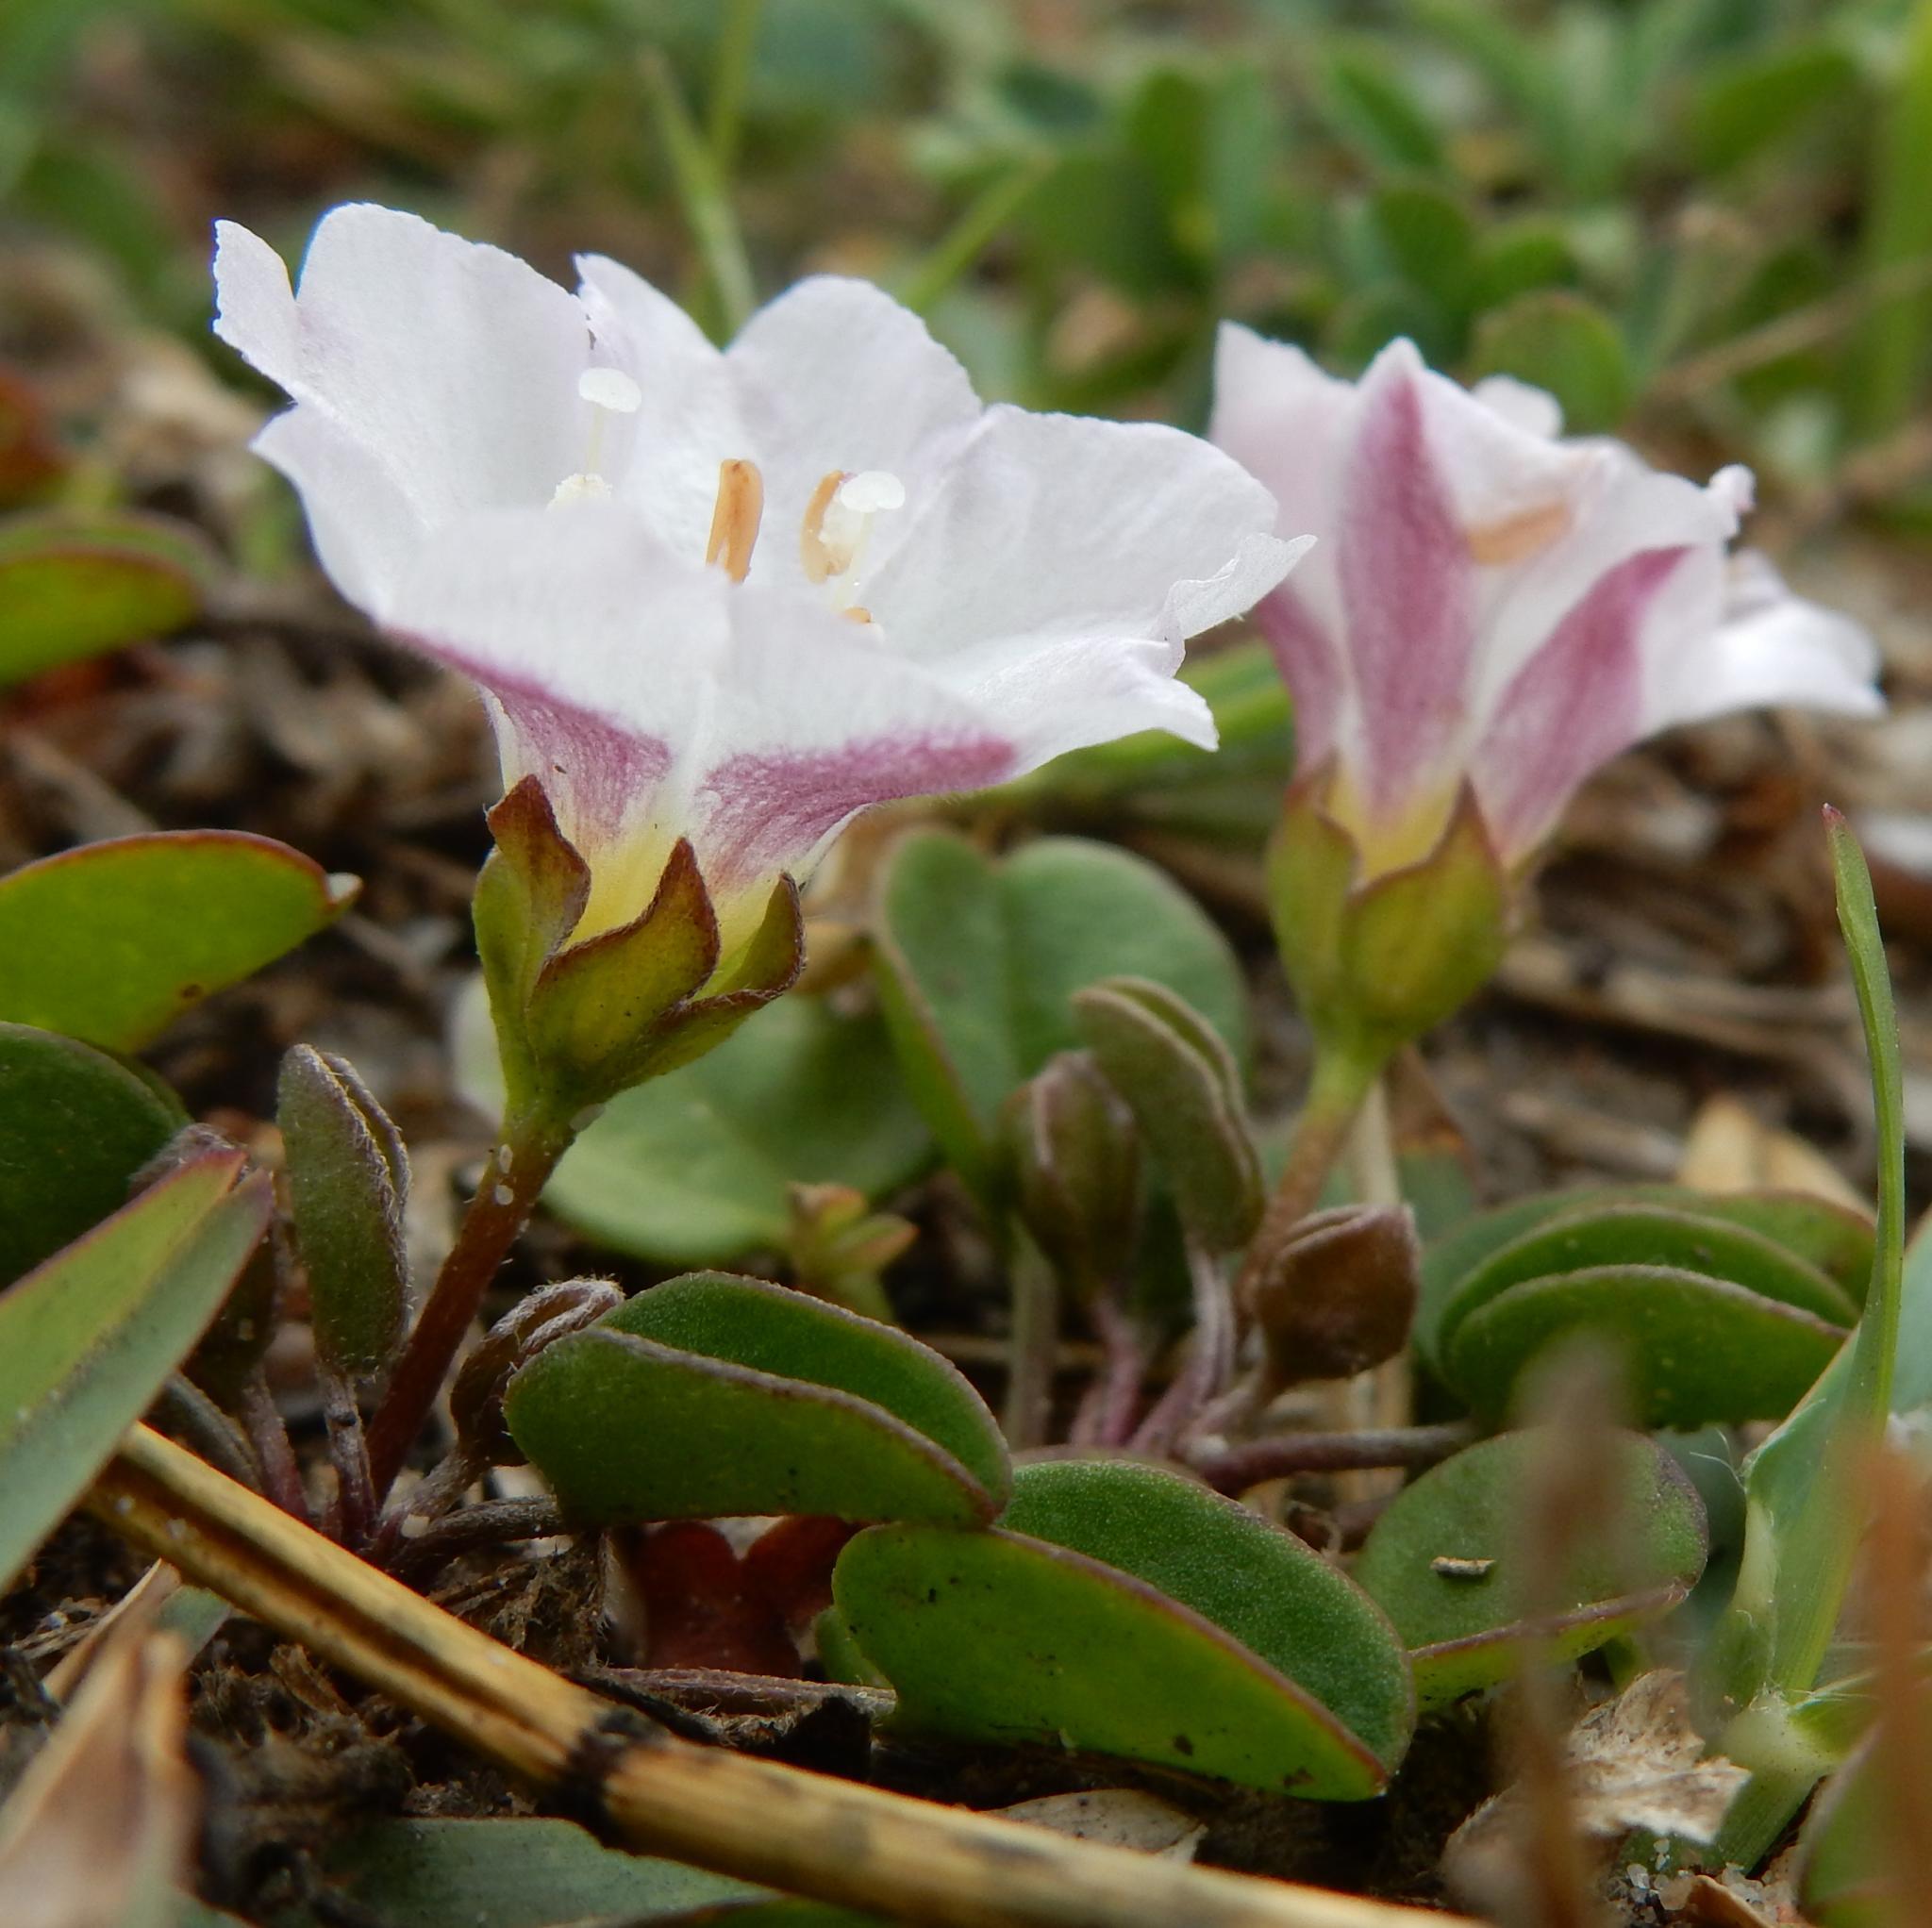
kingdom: Plantae
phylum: Tracheophyta
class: Magnoliopsida
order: Solanales
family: Convolvulaceae
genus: Falkia
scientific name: Falkia repens
